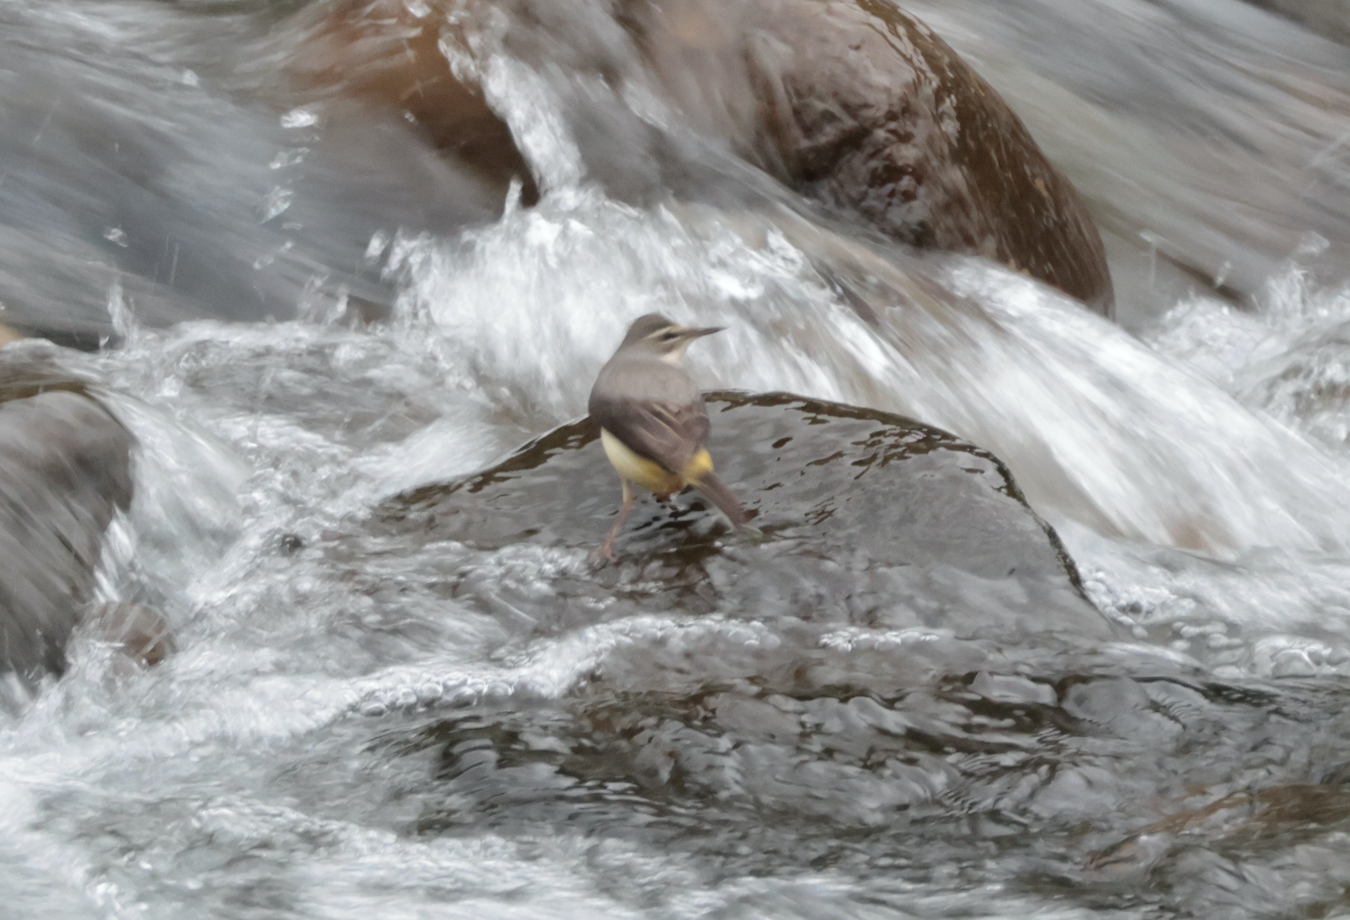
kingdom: Animalia
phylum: Chordata
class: Aves
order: Passeriformes
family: Motacillidae
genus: Motacilla
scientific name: Motacilla cinerea
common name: Grey wagtail
